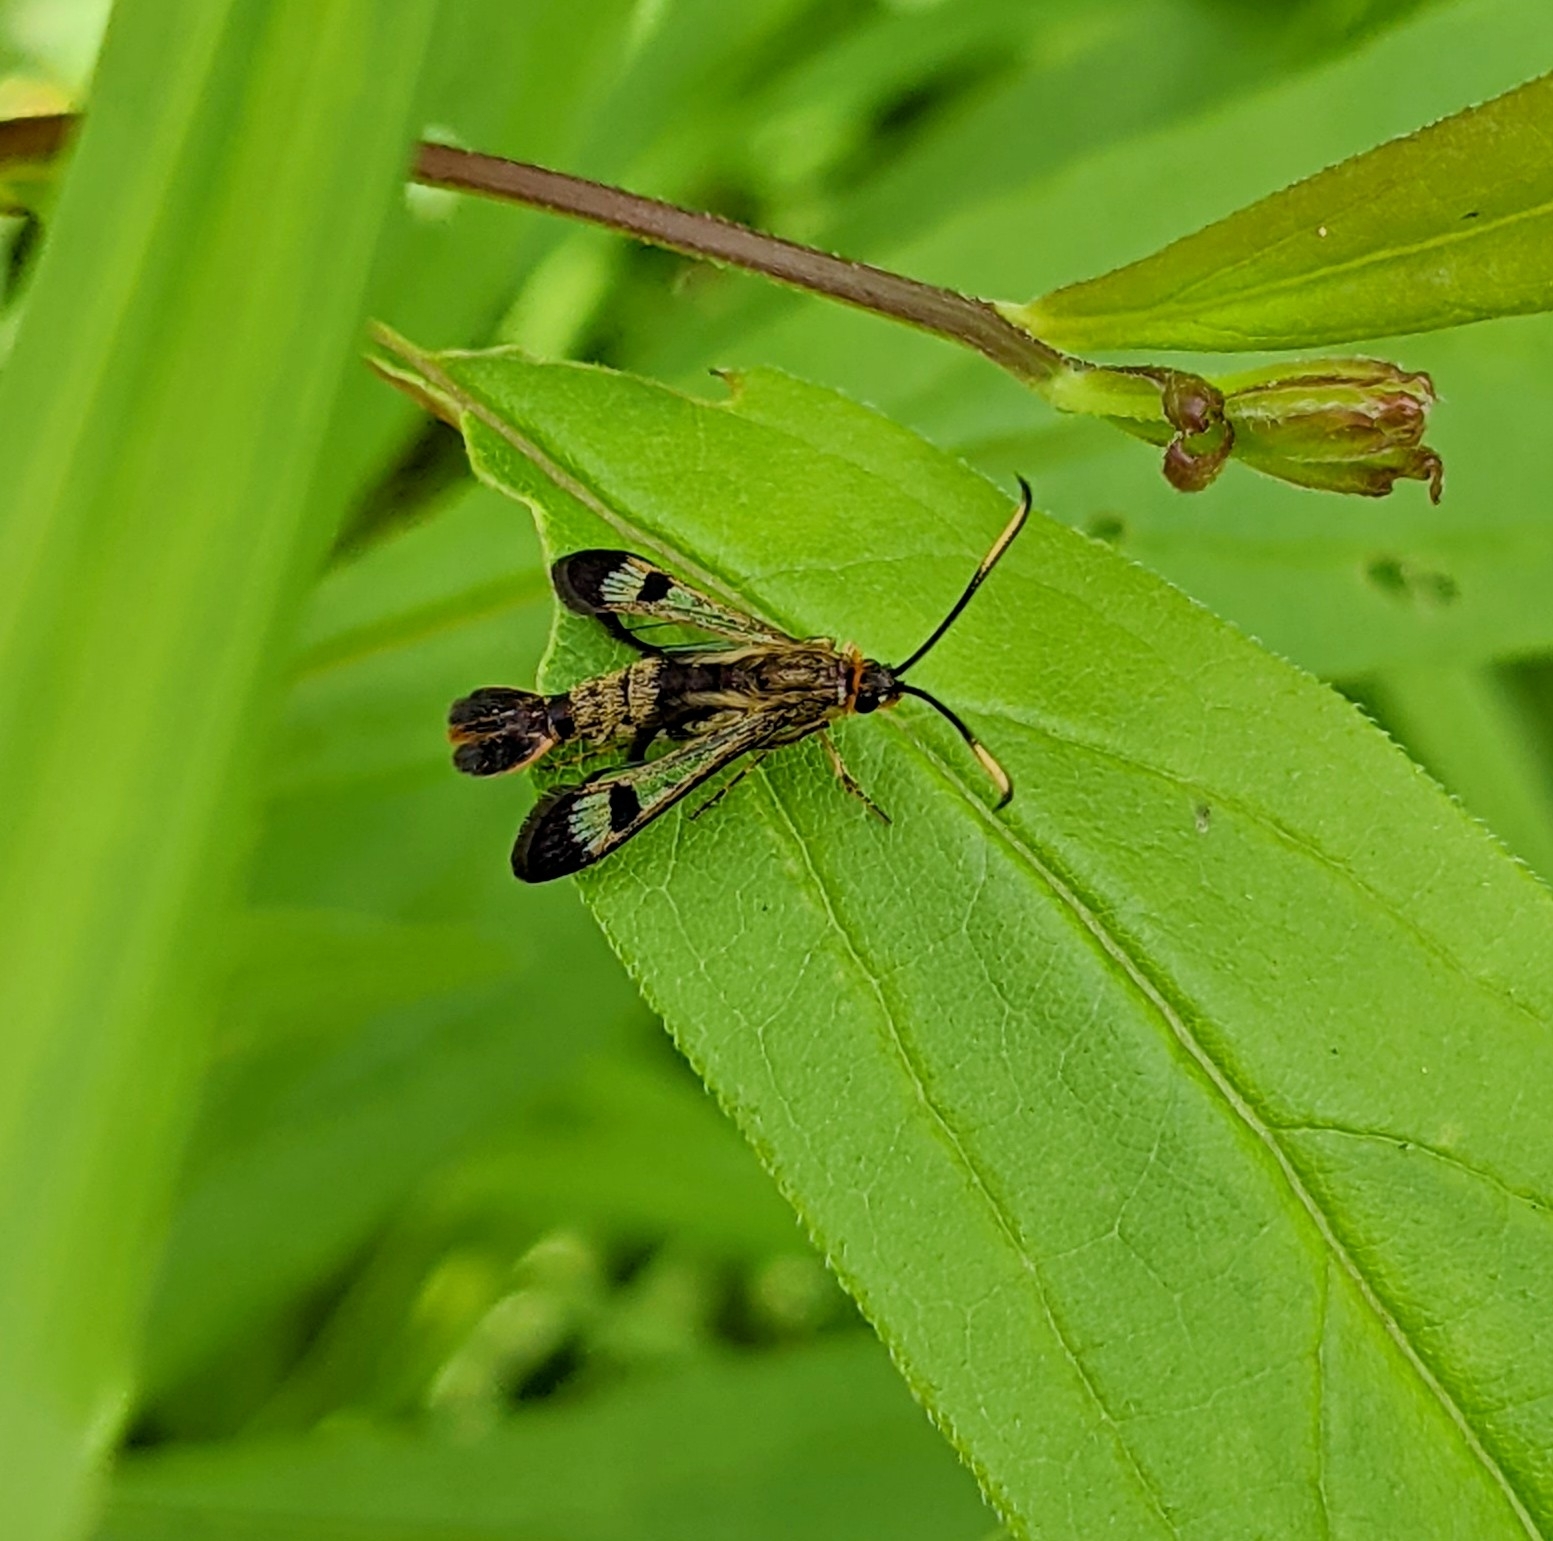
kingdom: Animalia
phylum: Arthropoda
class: Insecta
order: Lepidoptera
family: Sesiidae
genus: Carmenta
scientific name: Carmenta corni
